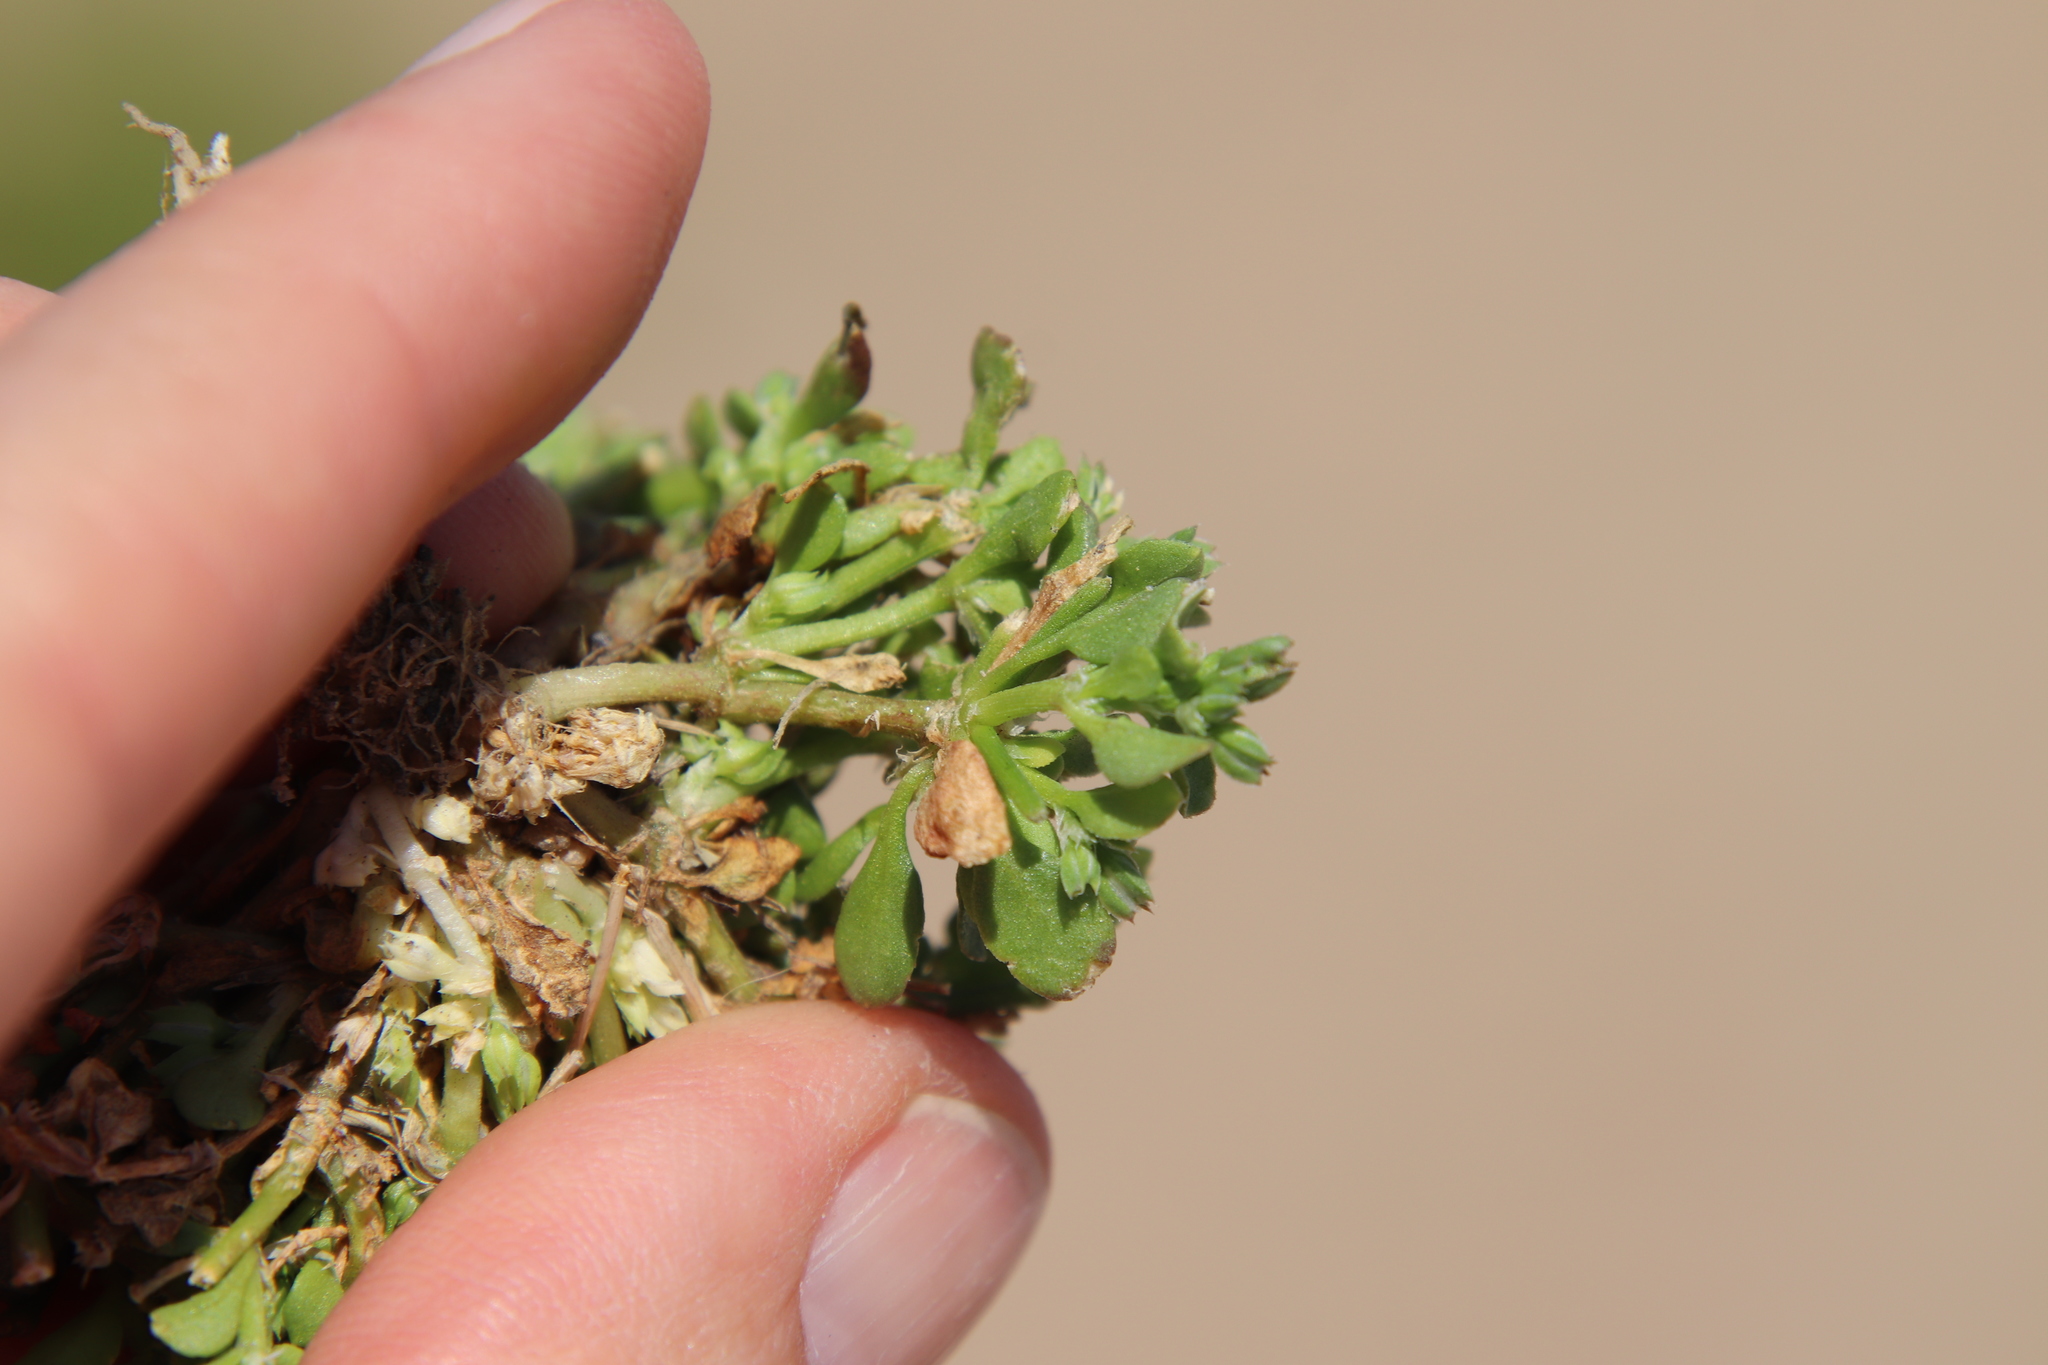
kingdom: Plantae
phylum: Tracheophyta
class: Magnoliopsida
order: Caryophyllales
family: Caryophyllaceae
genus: Polycarpon
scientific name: Polycarpon tetraphyllum
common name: Four-leaved all-seed
